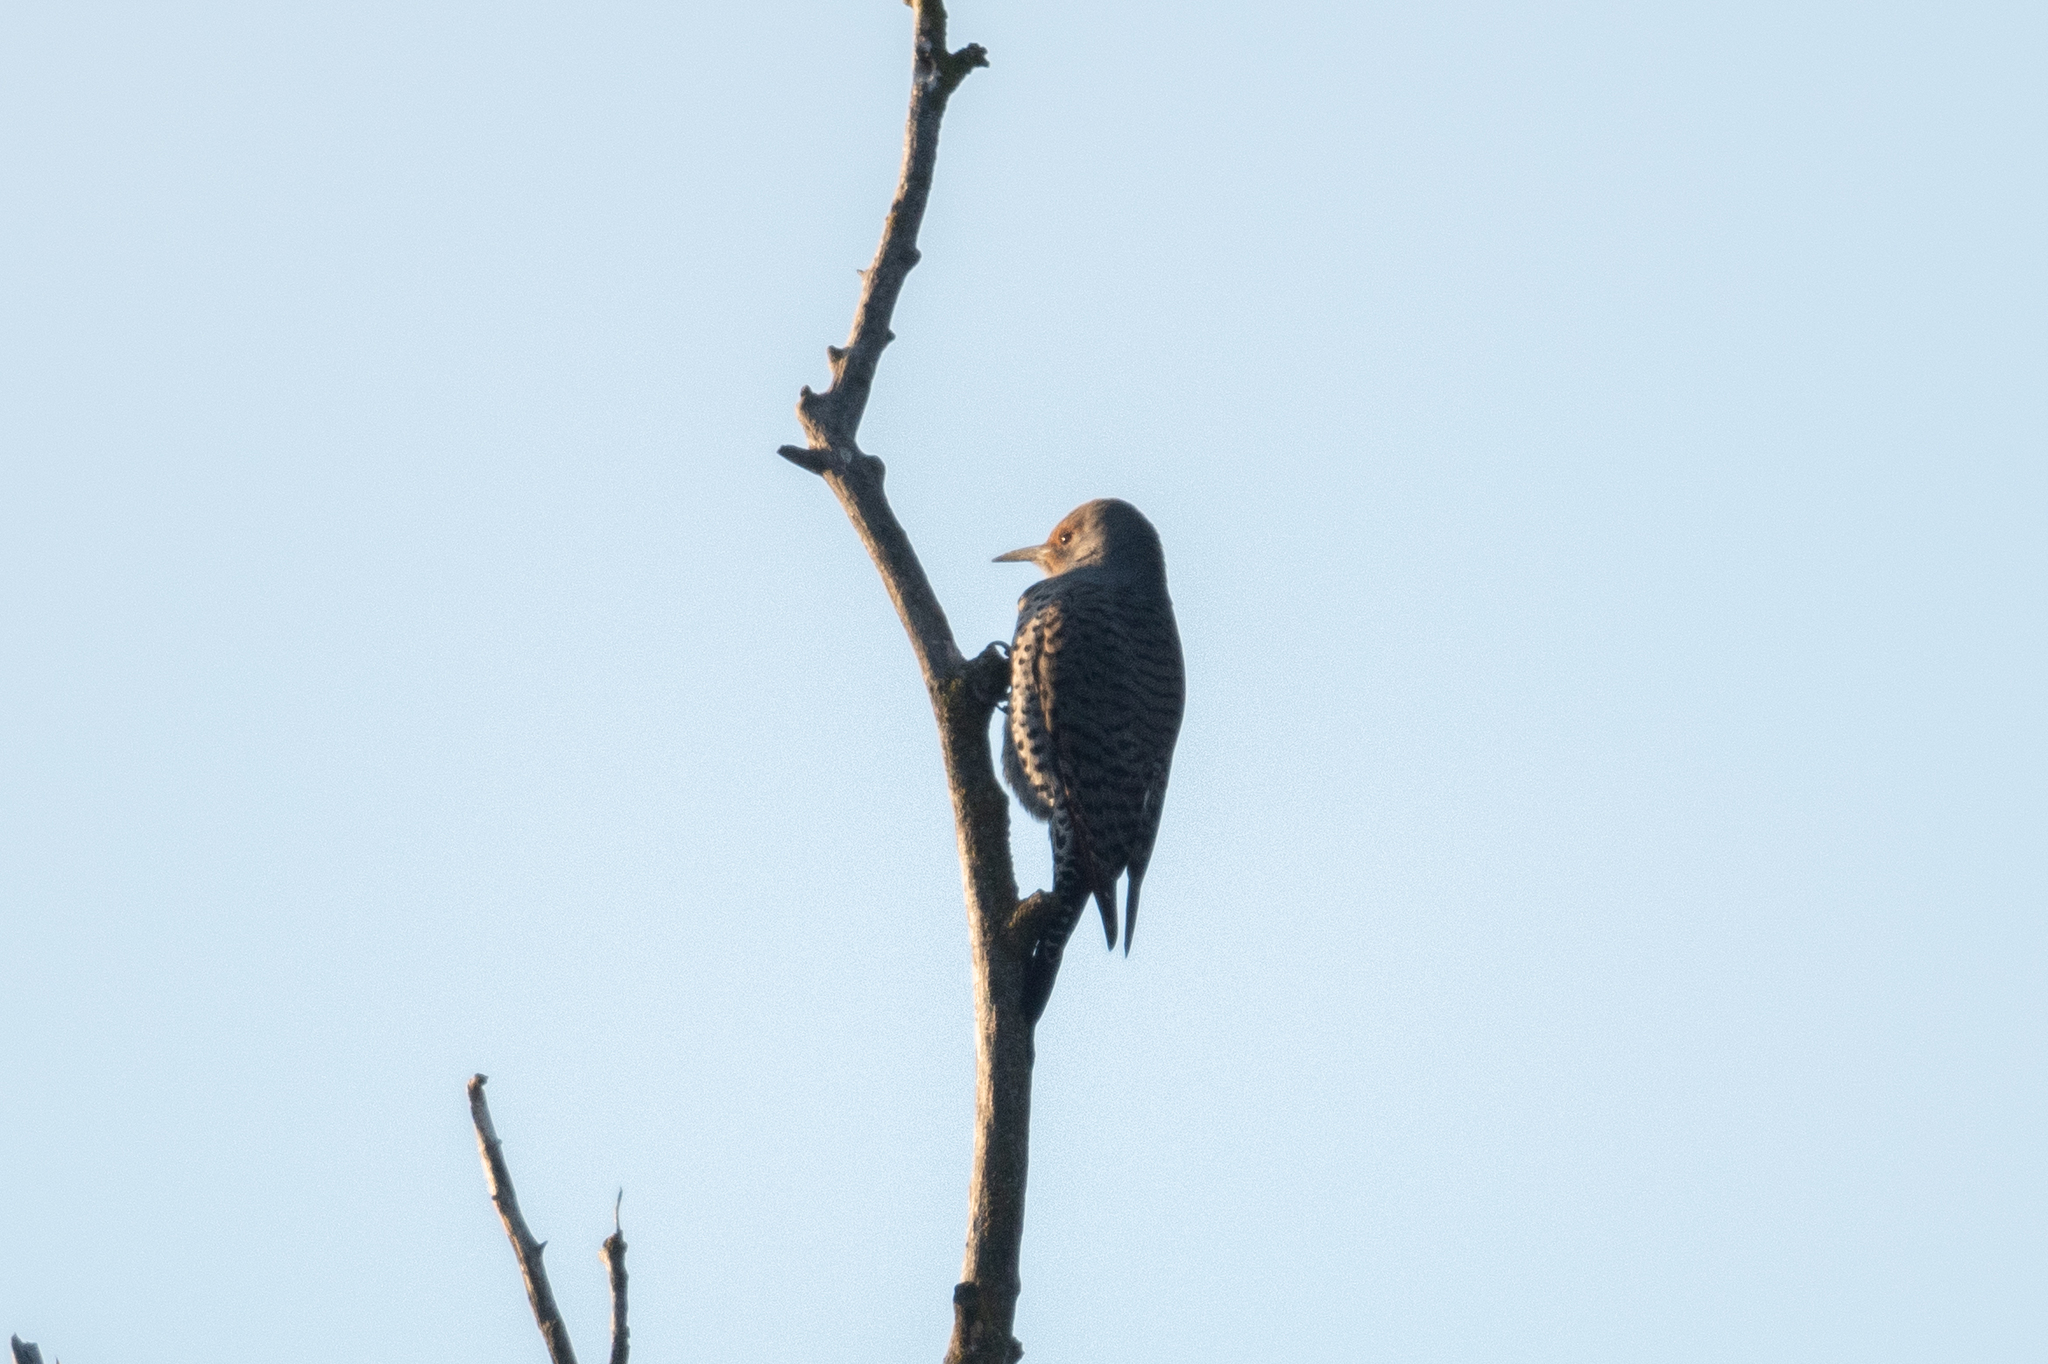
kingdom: Animalia
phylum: Chordata
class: Aves
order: Piciformes
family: Picidae
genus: Colaptes
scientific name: Colaptes auratus
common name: Northern flicker
